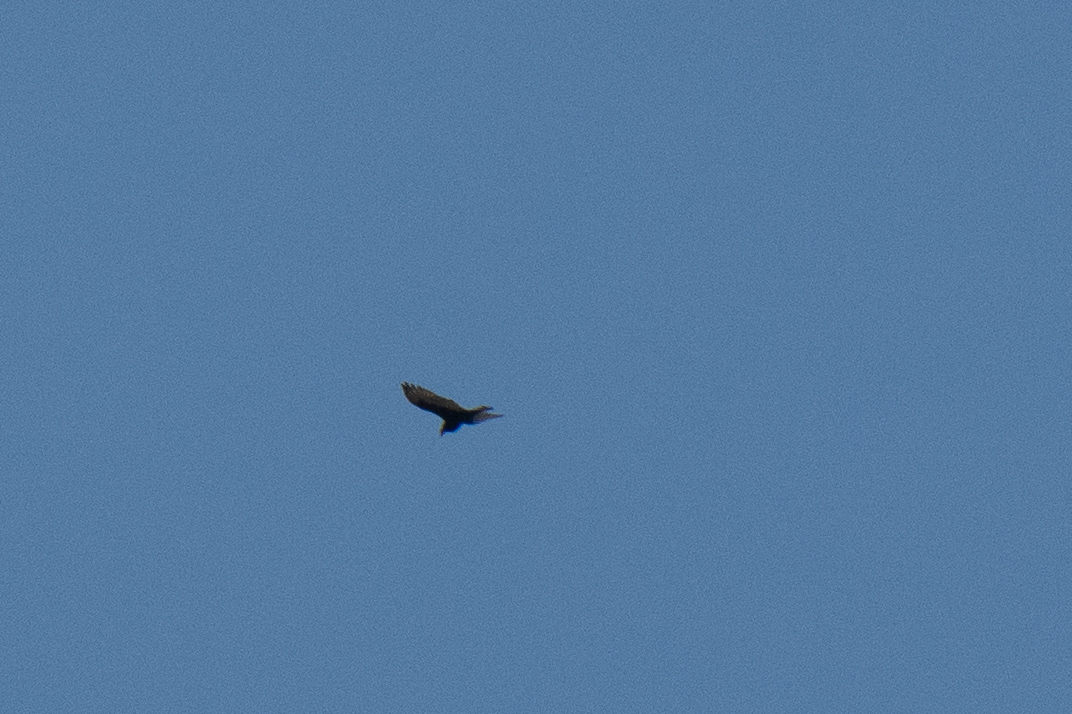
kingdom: Animalia
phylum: Chordata
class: Aves
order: Accipitriformes
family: Cathartidae
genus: Cathartes
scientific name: Cathartes aura
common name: Turkey vulture
